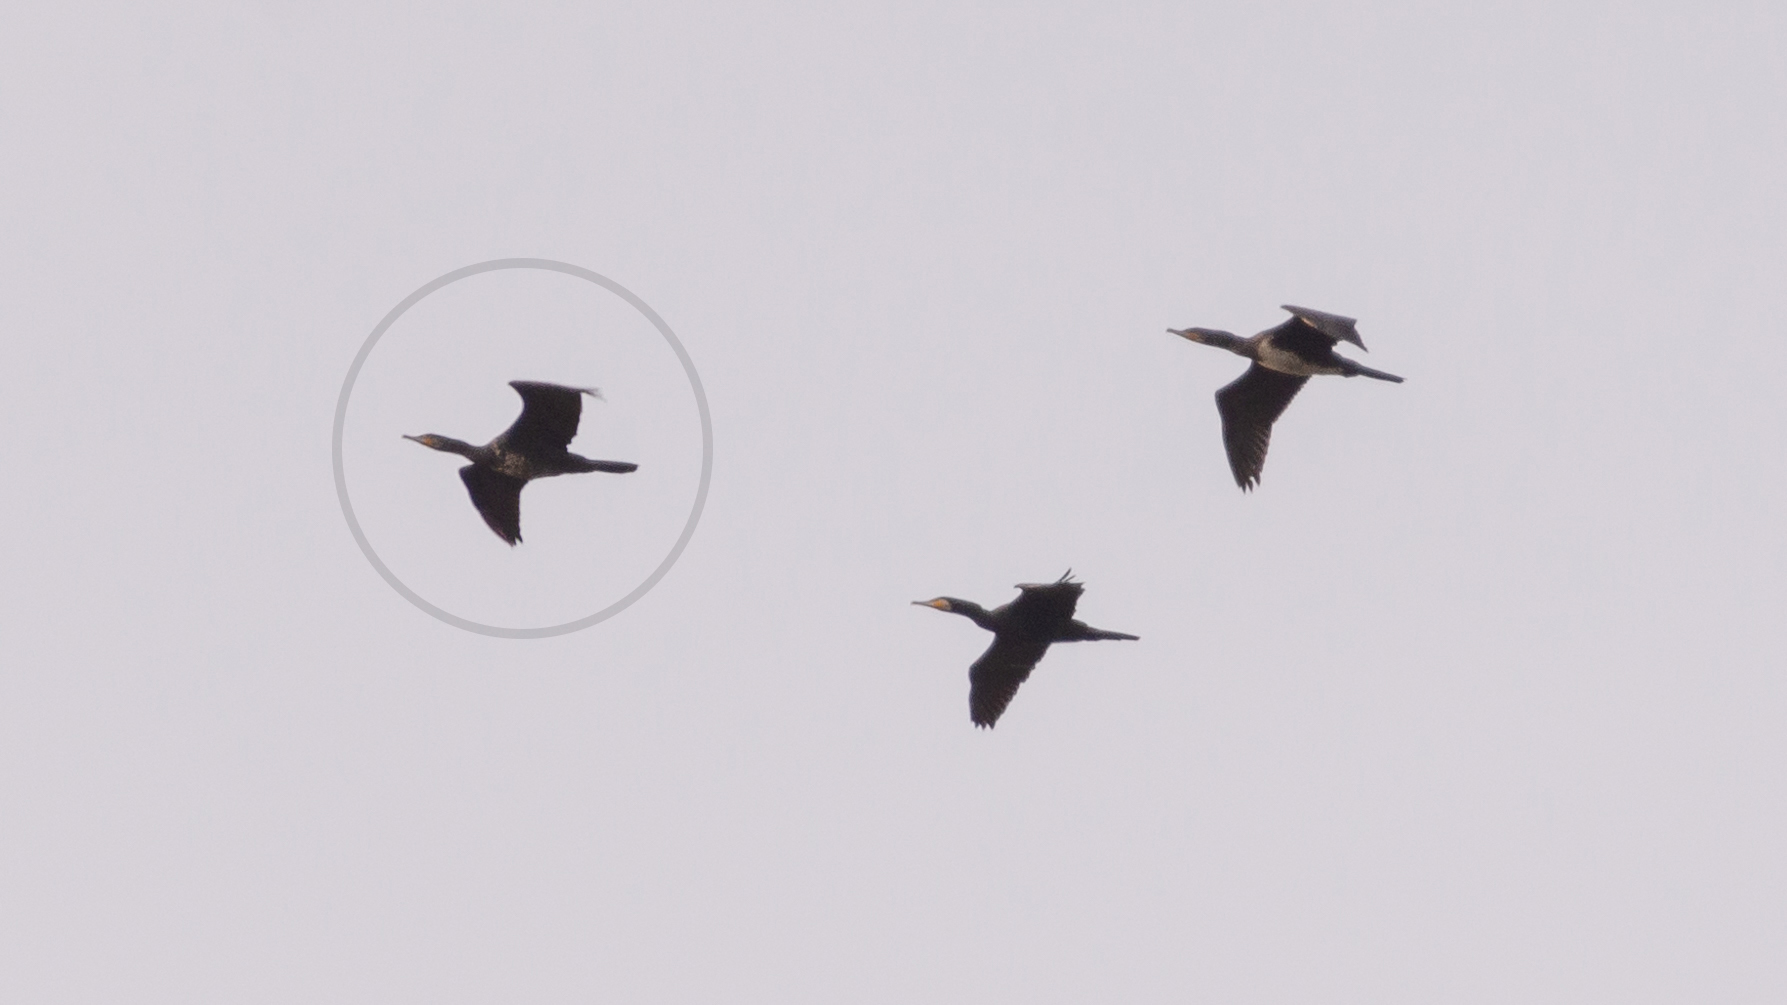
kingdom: Animalia
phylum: Chordata
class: Aves
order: Suliformes
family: Phalacrocoracidae
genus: Phalacrocorax
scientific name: Phalacrocorax carbo
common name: Great cormorant
